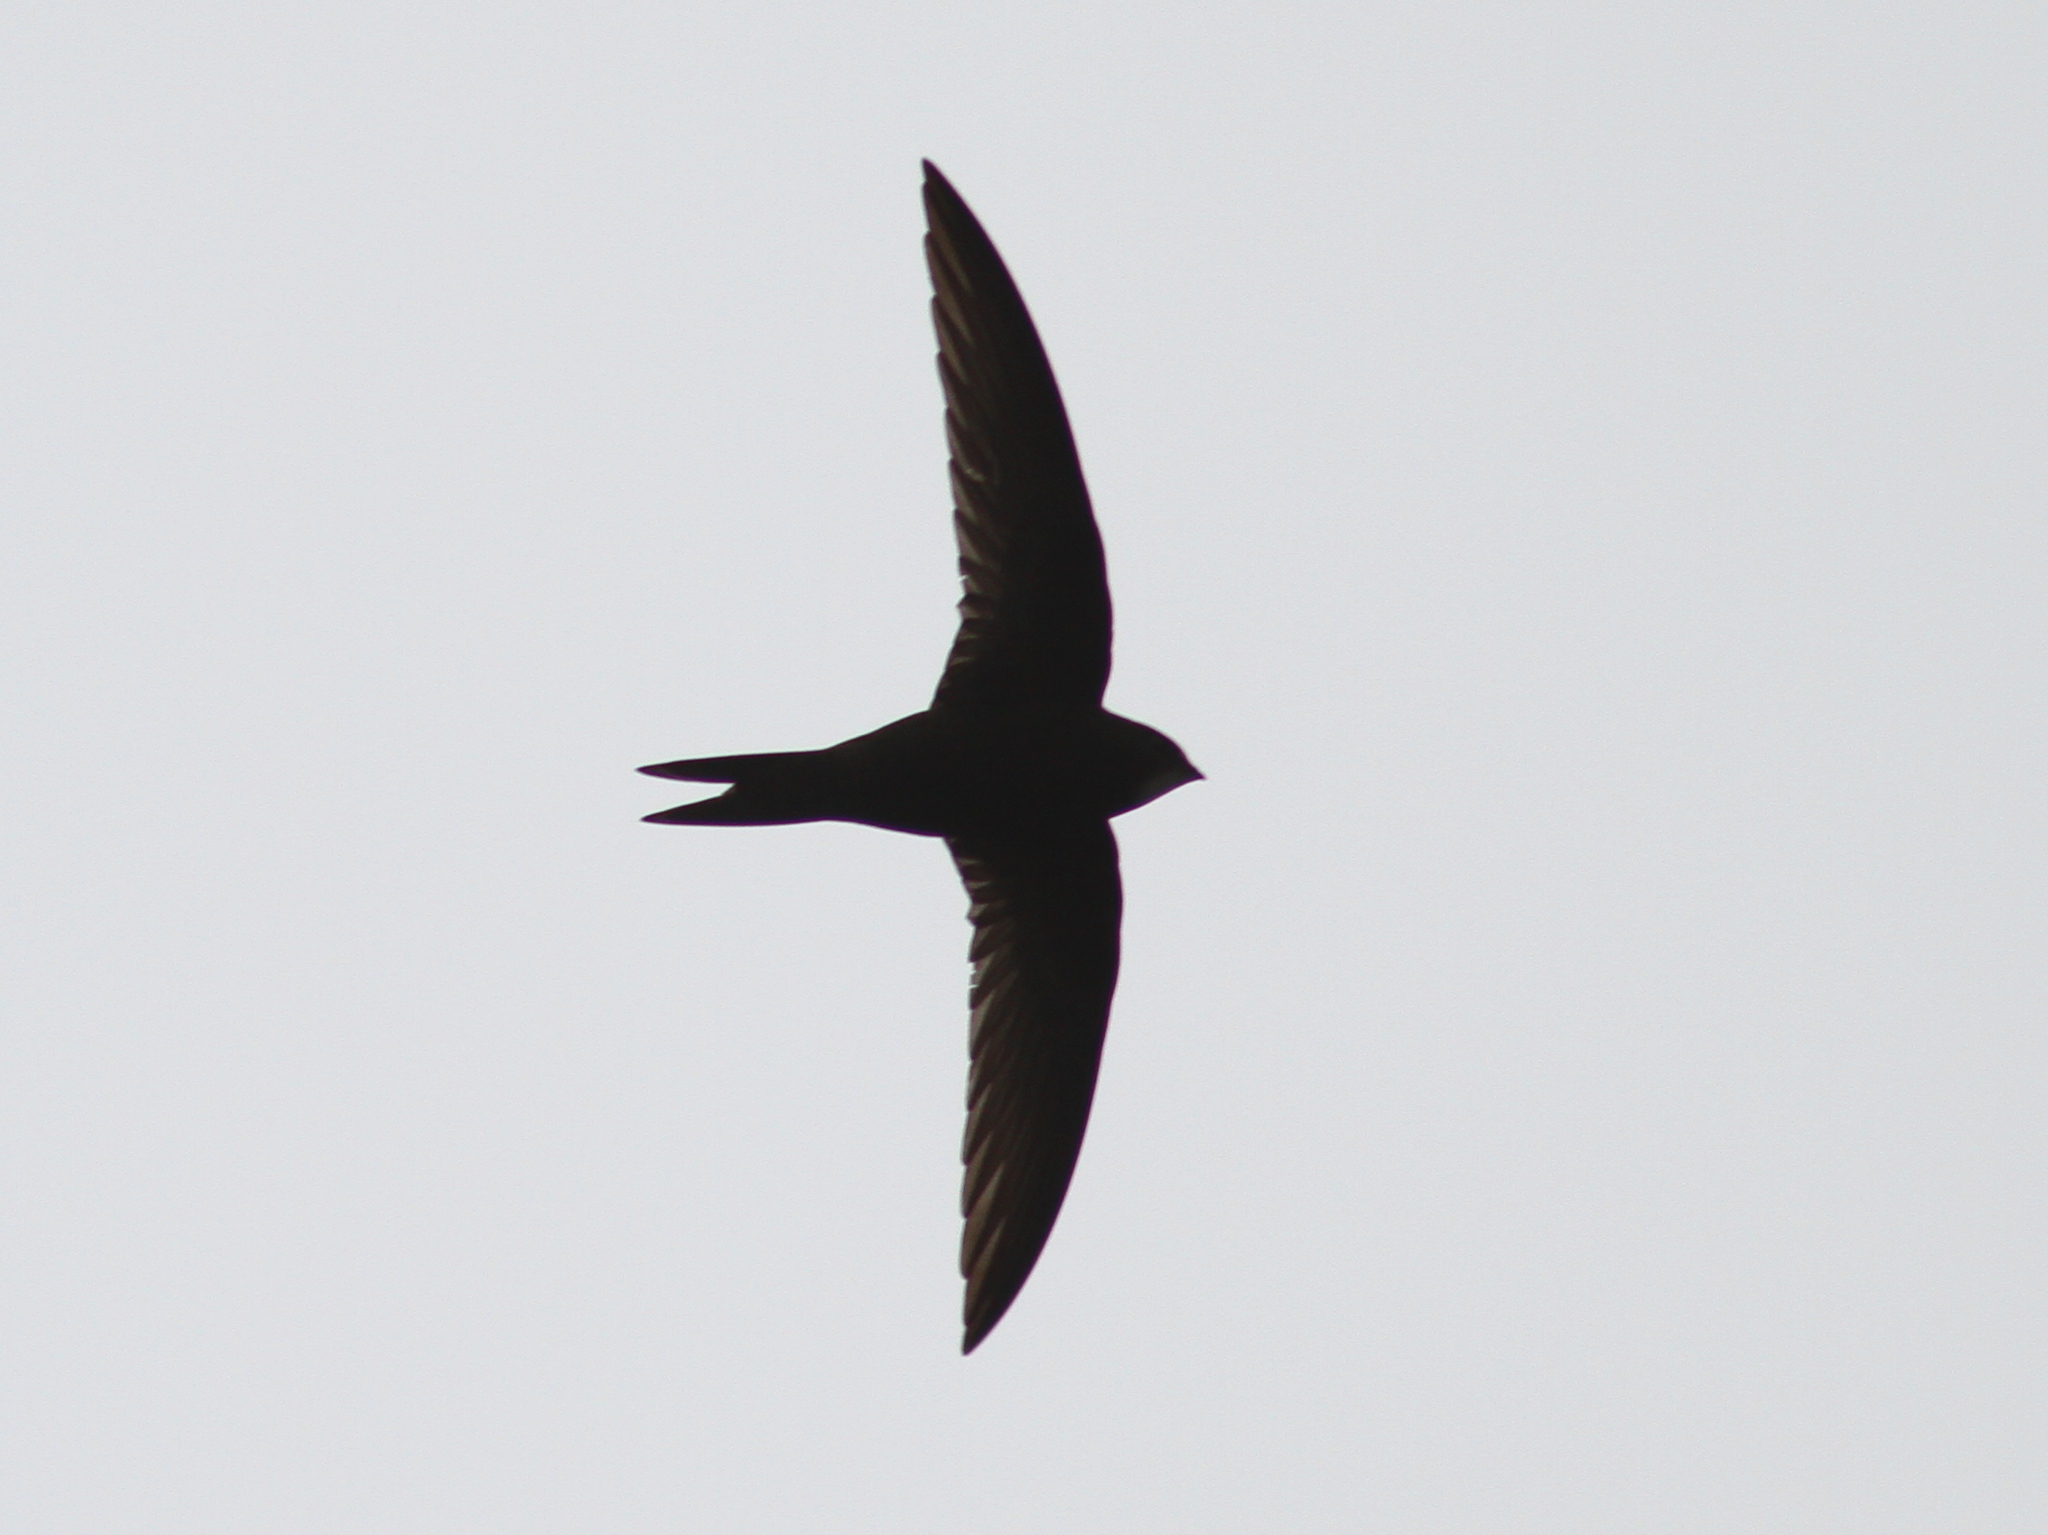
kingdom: Animalia
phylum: Chordata
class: Aves
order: Apodiformes
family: Apodidae
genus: Apus
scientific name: Apus apus
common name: Common swift
